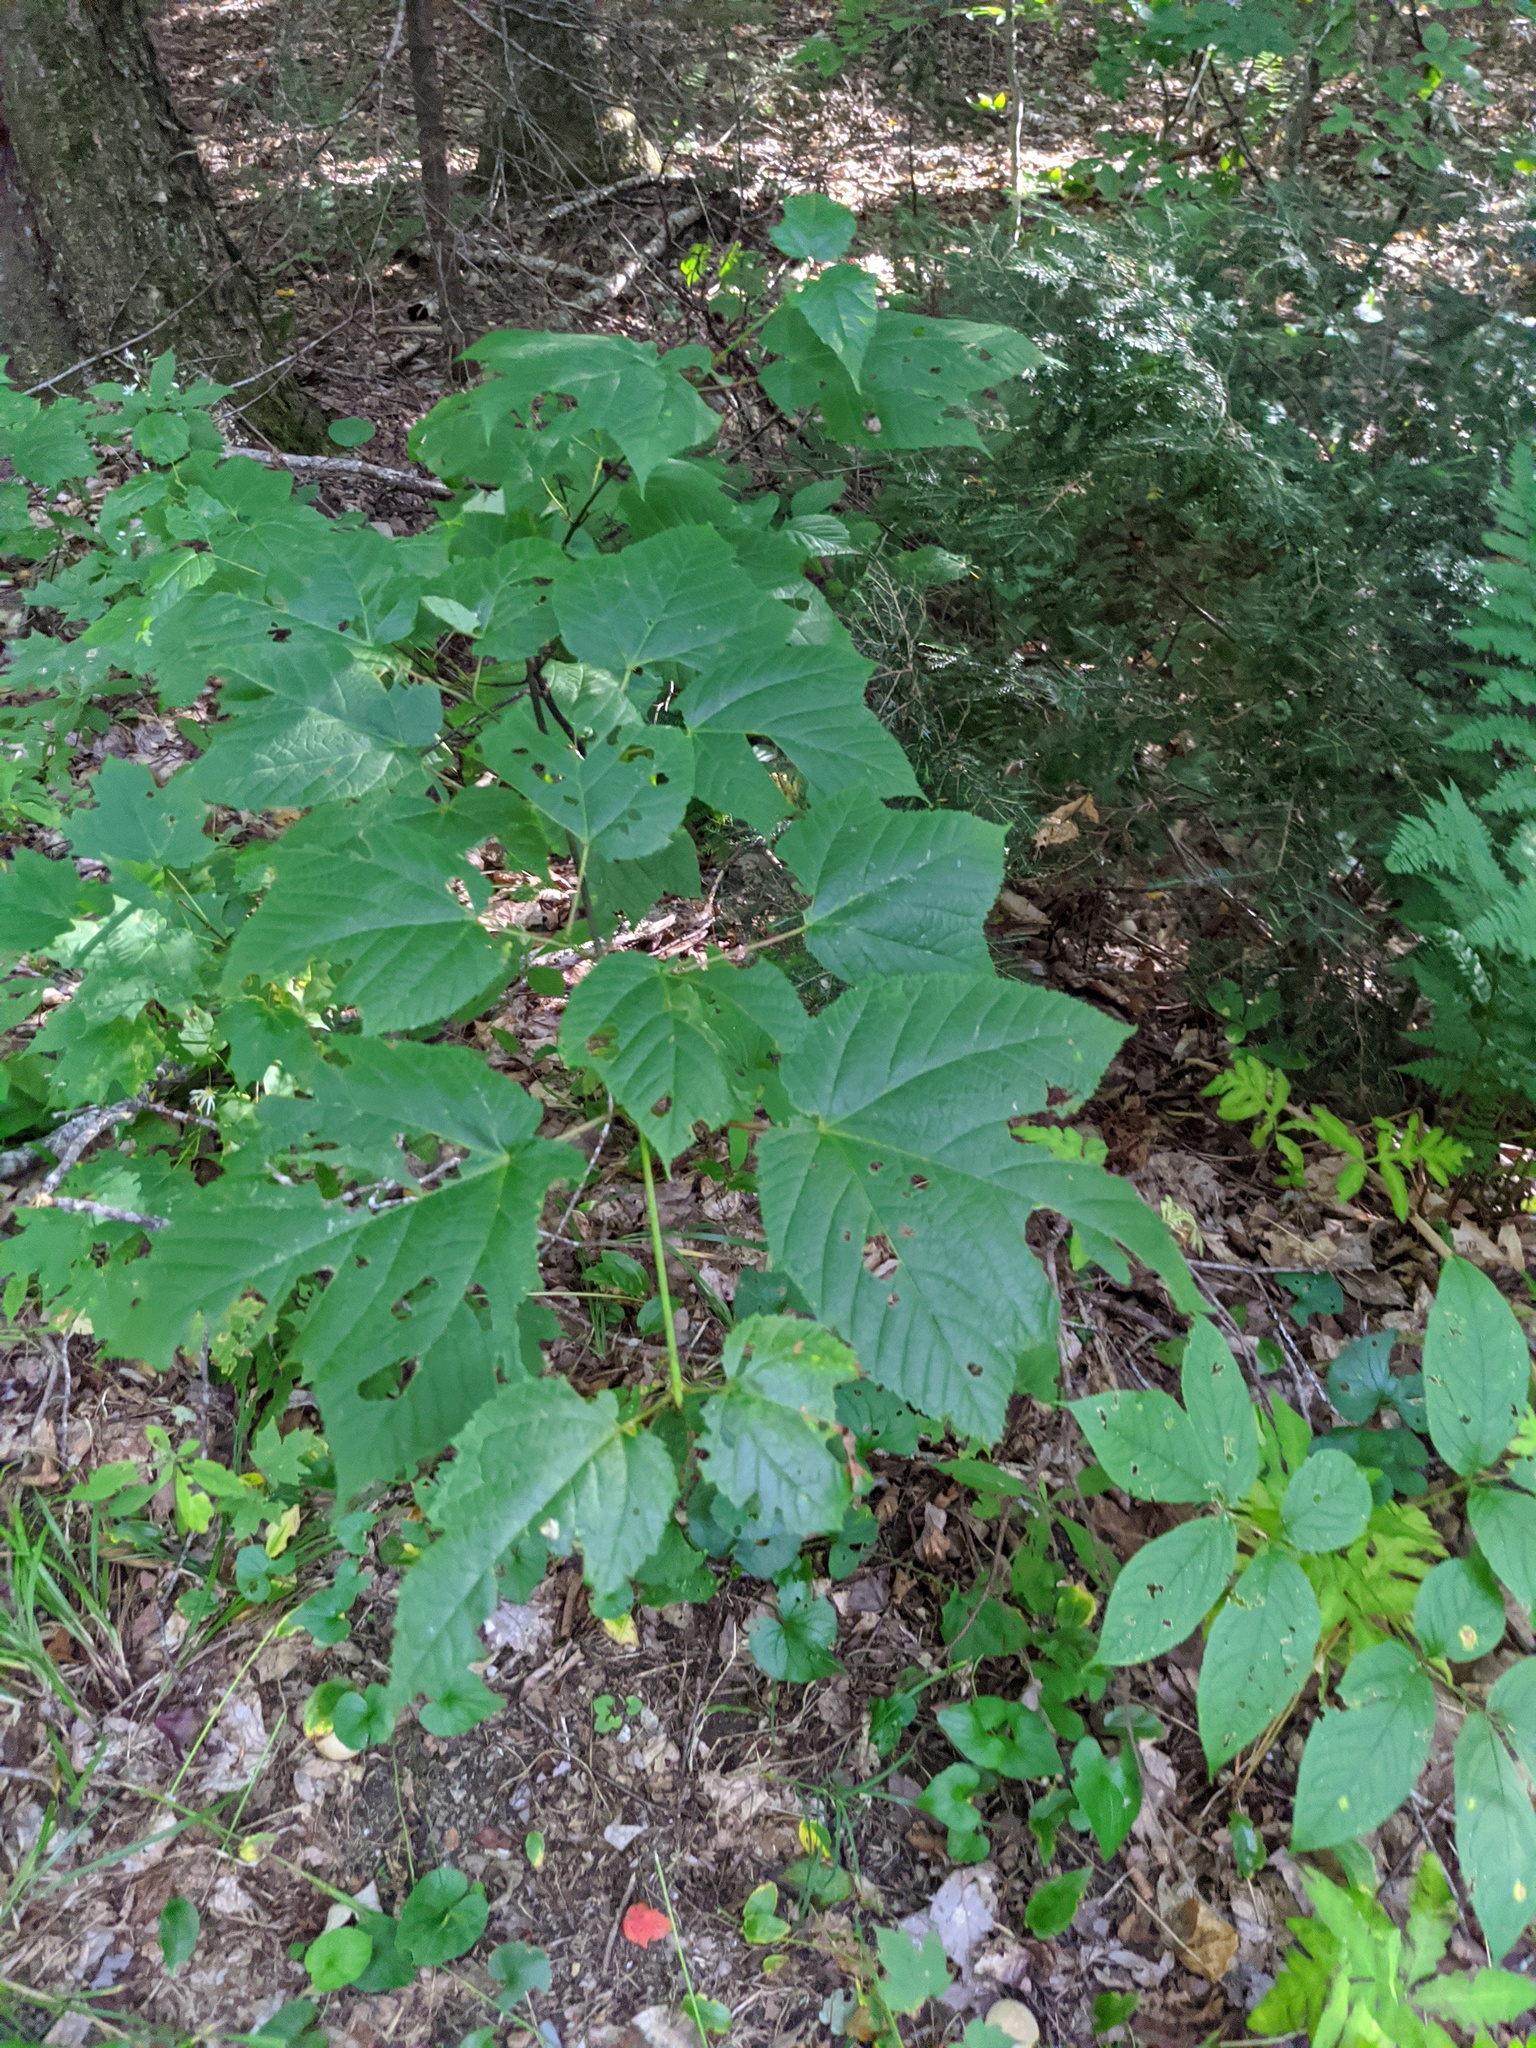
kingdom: Plantae
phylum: Tracheophyta
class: Magnoliopsida
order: Sapindales
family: Sapindaceae
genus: Acer
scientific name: Acer pensylvanicum
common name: Moosewood
